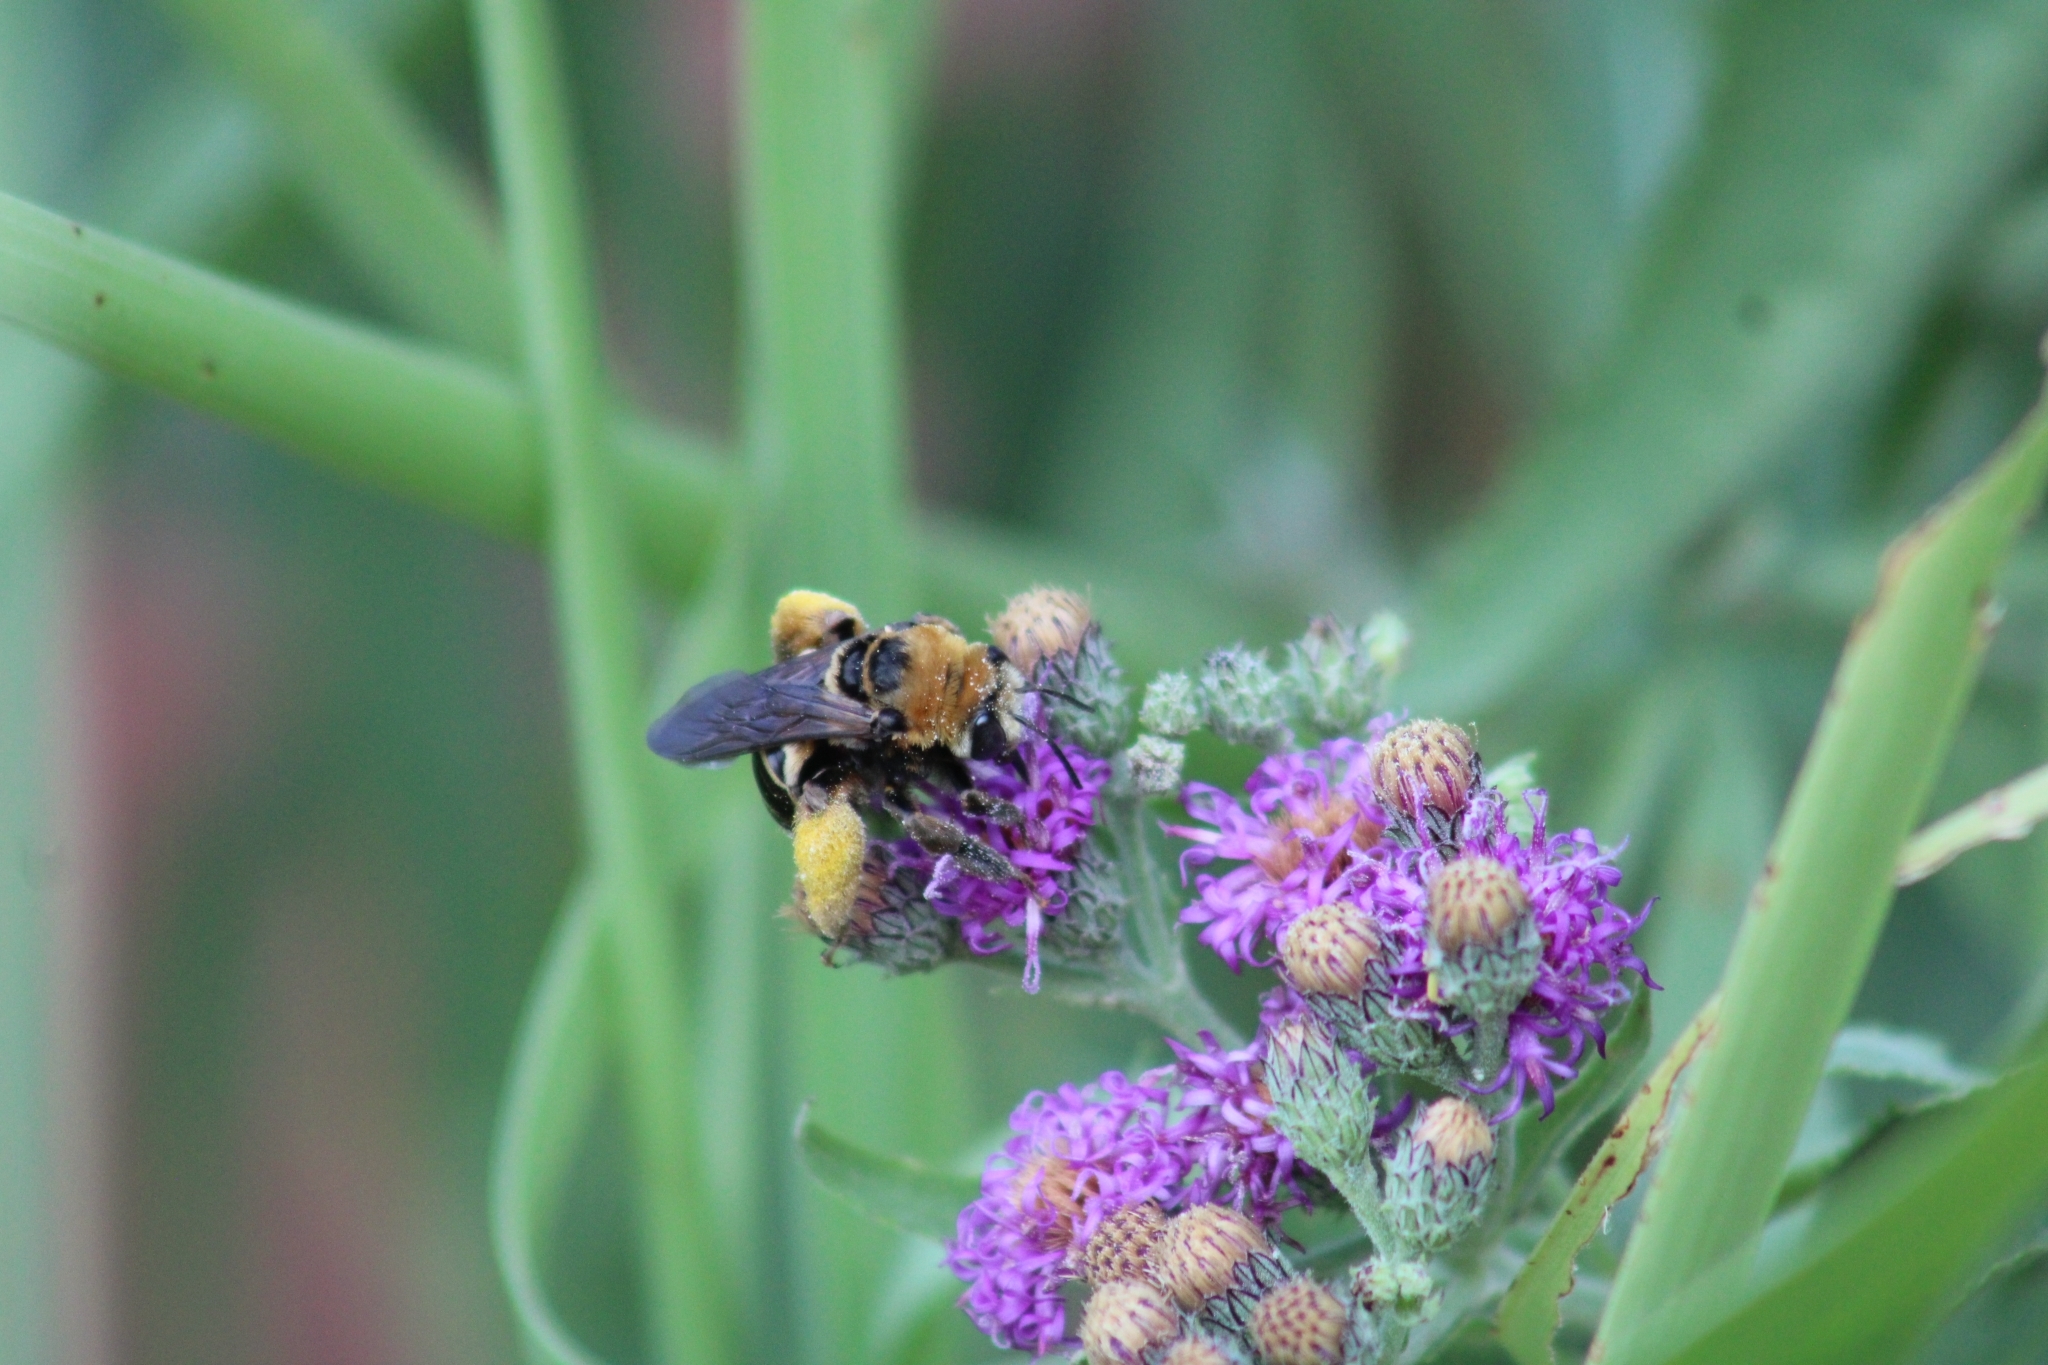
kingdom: Animalia
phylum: Arthropoda
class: Insecta
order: Hymenoptera
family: Apidae
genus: Svastra
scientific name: Svastra obliqua
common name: Oblique longhorn
